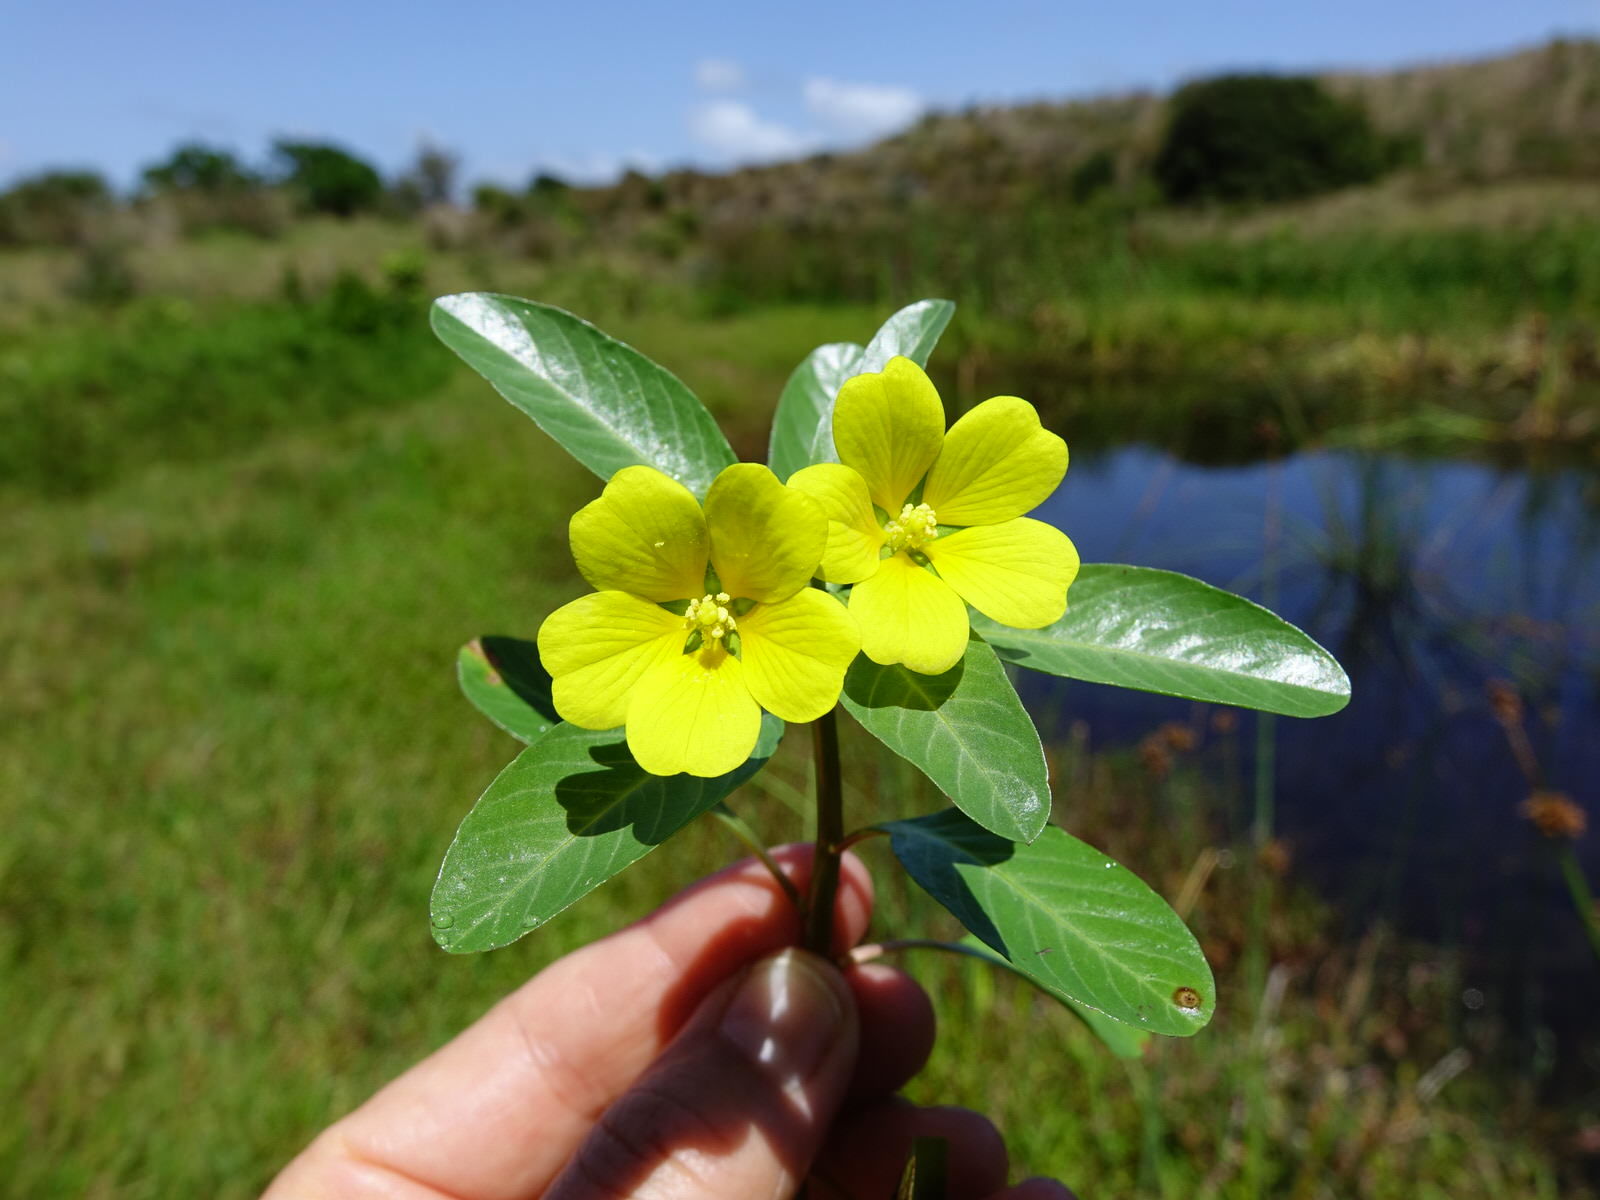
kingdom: Plantae
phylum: Tracheophyta
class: Magnoliopsida
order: Myrtales
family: Onagraceae
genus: Ludwigia
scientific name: Ludwigia peploides
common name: Floating primrose-willow
